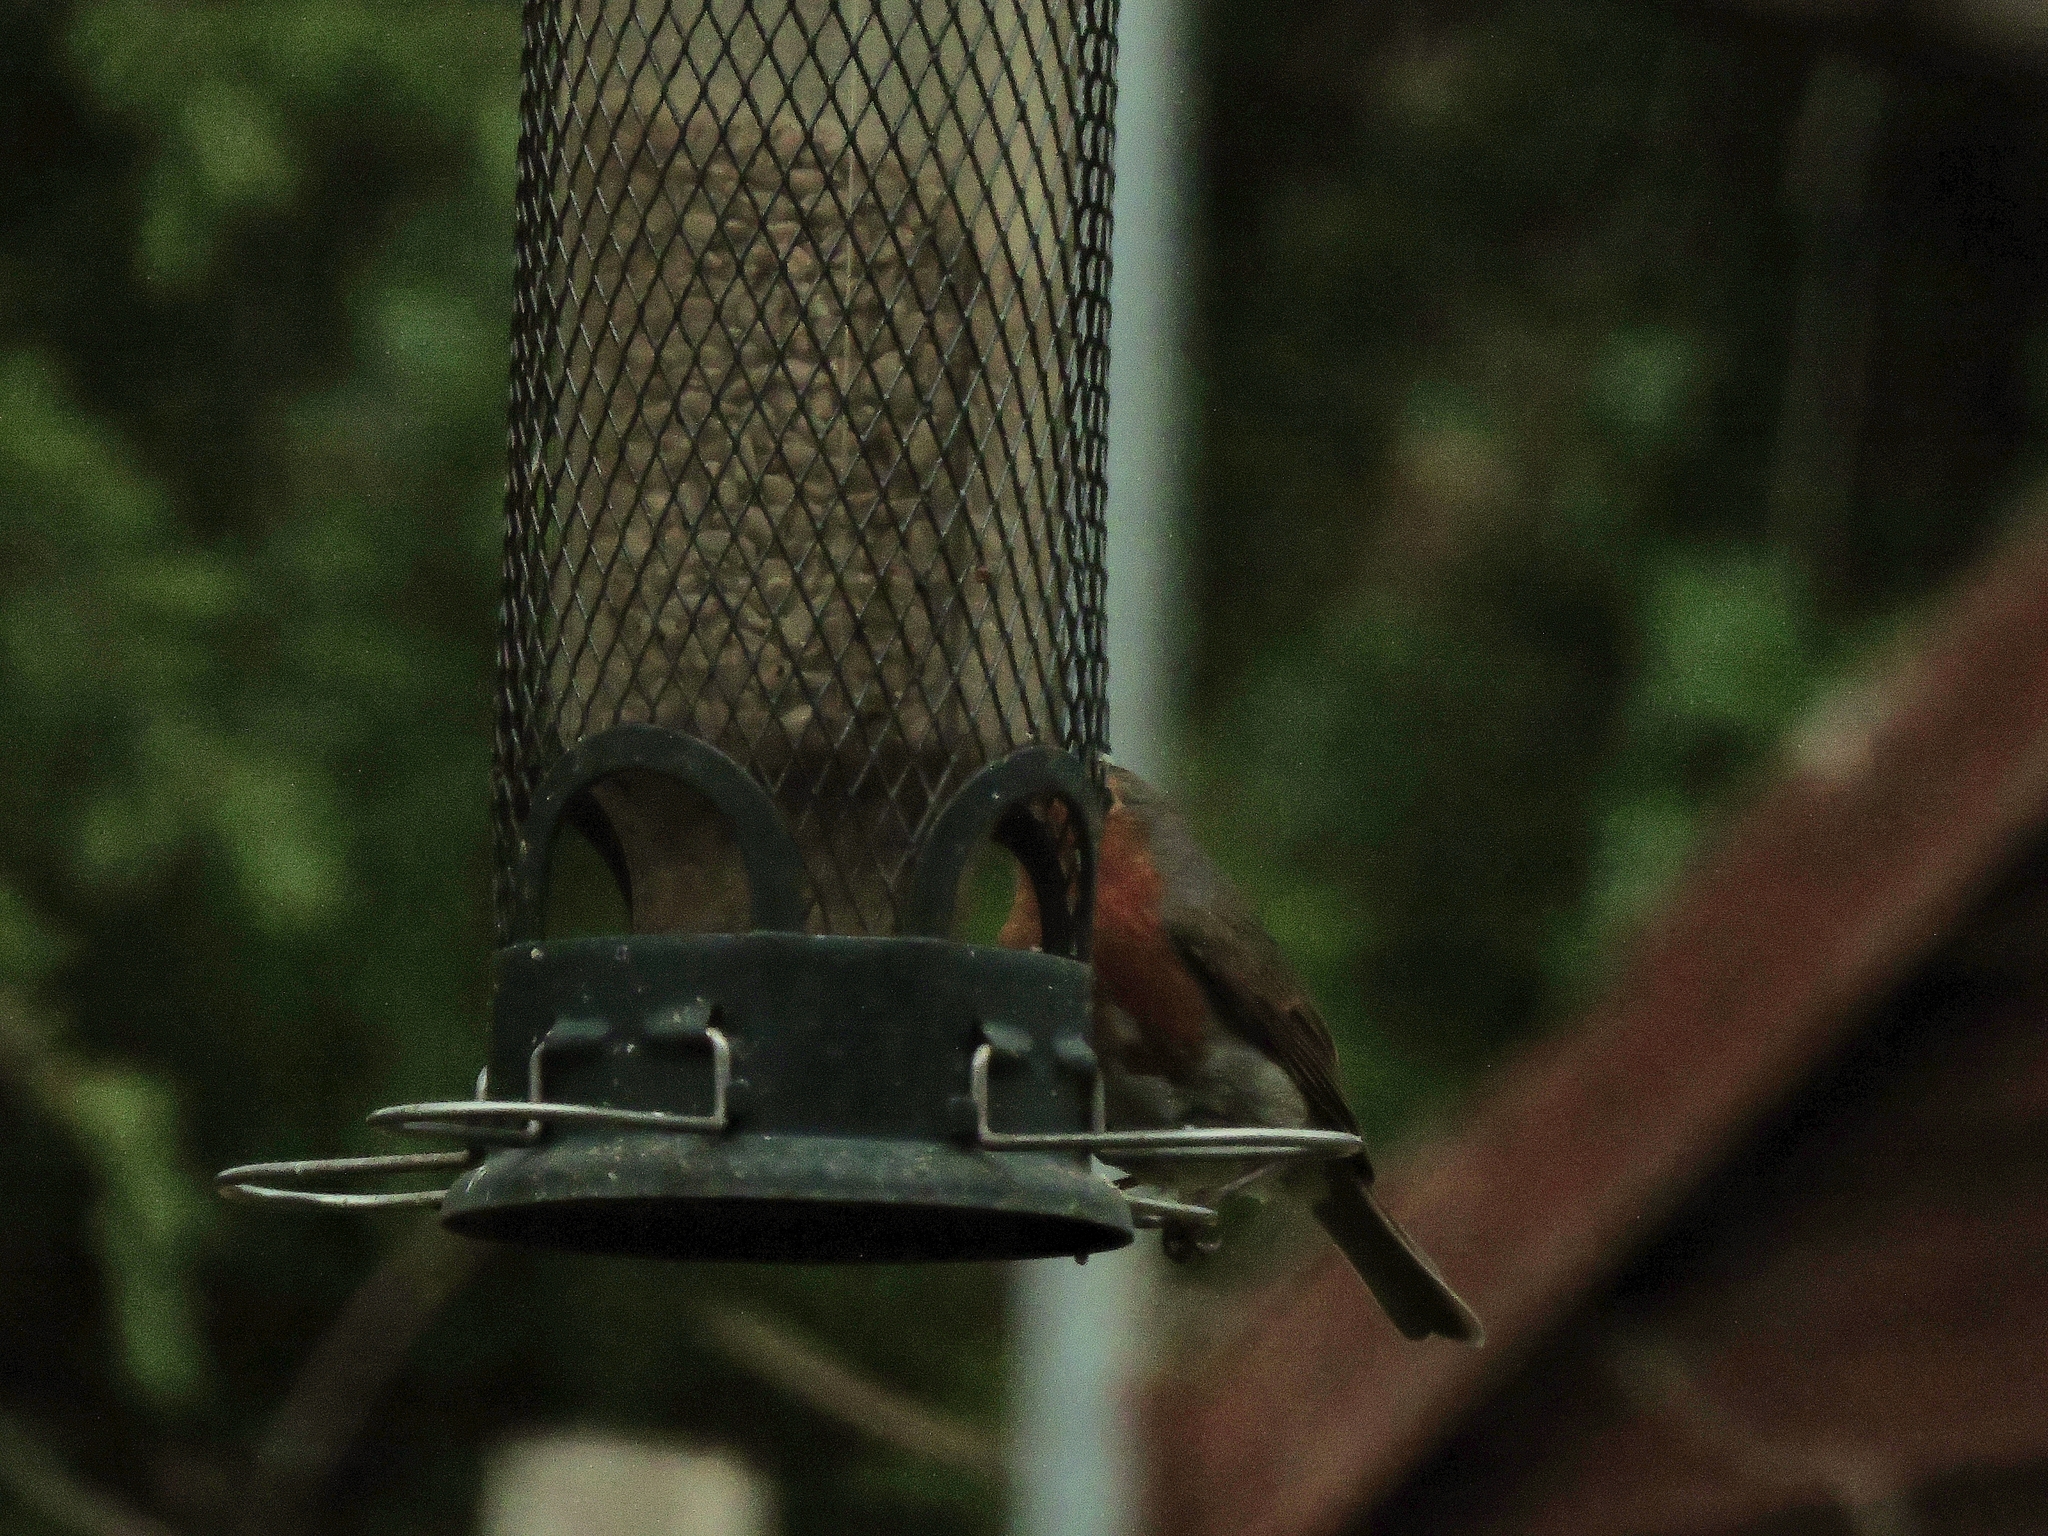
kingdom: Animalia
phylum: Chordata
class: Aves
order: Passeriformes
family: Muscicapidae
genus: Erithacus
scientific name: Erithacus rubecula
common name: European robin
